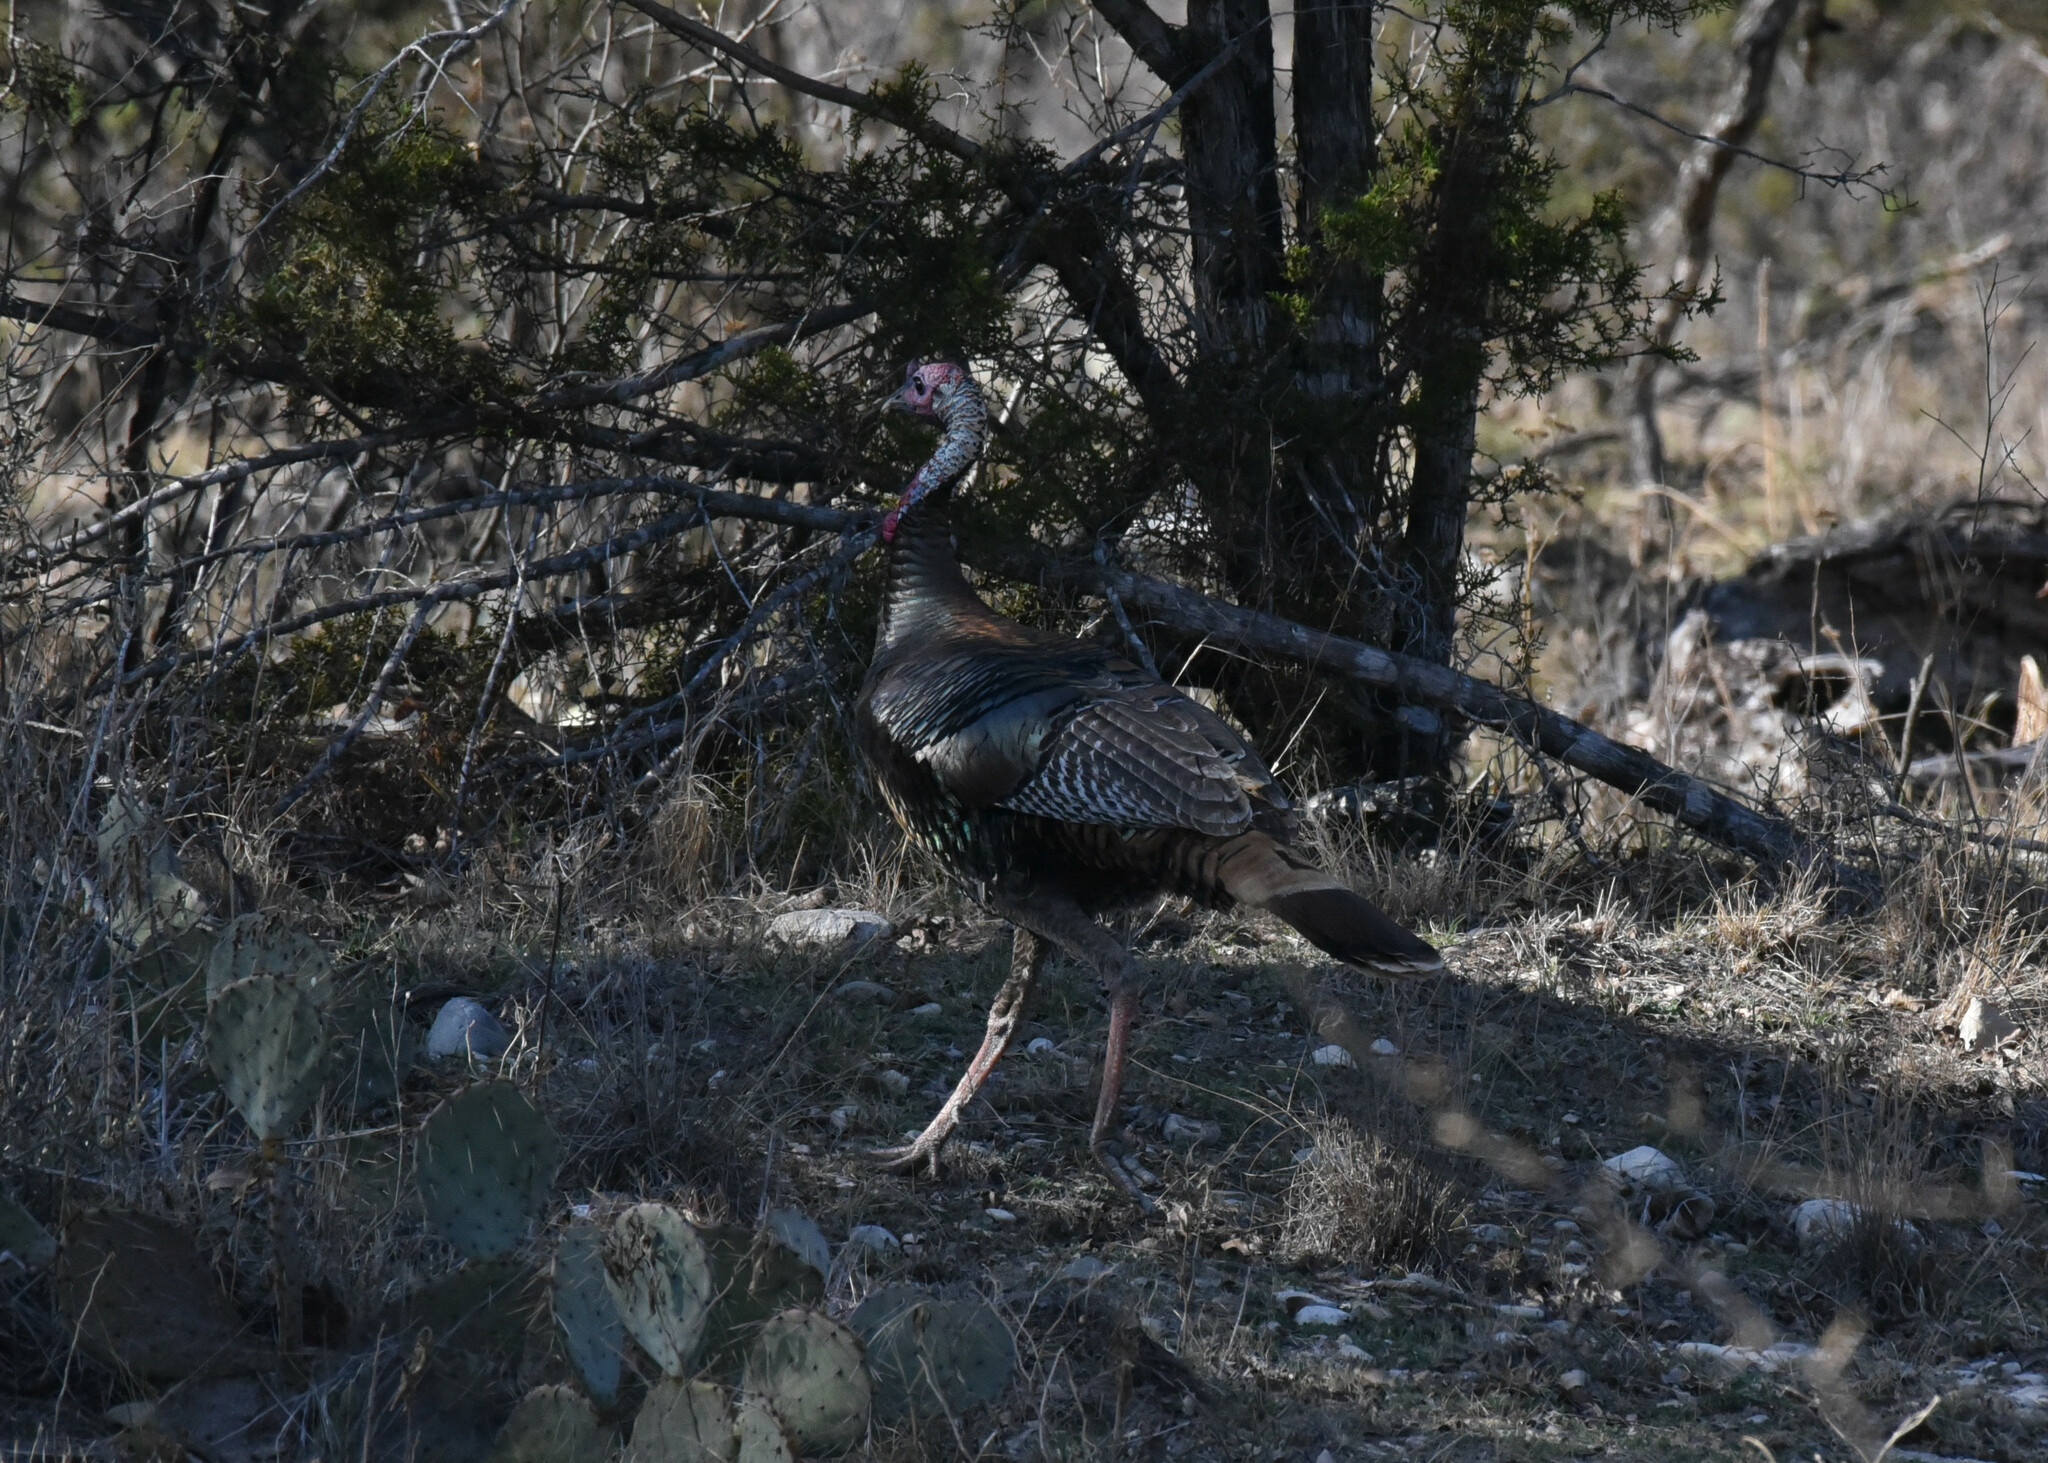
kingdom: Animalia
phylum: Chordata
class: Aves
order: Galliformes
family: Phasianidae
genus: Meleagris
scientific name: Meleagris gallopavo
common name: Wild turkey
